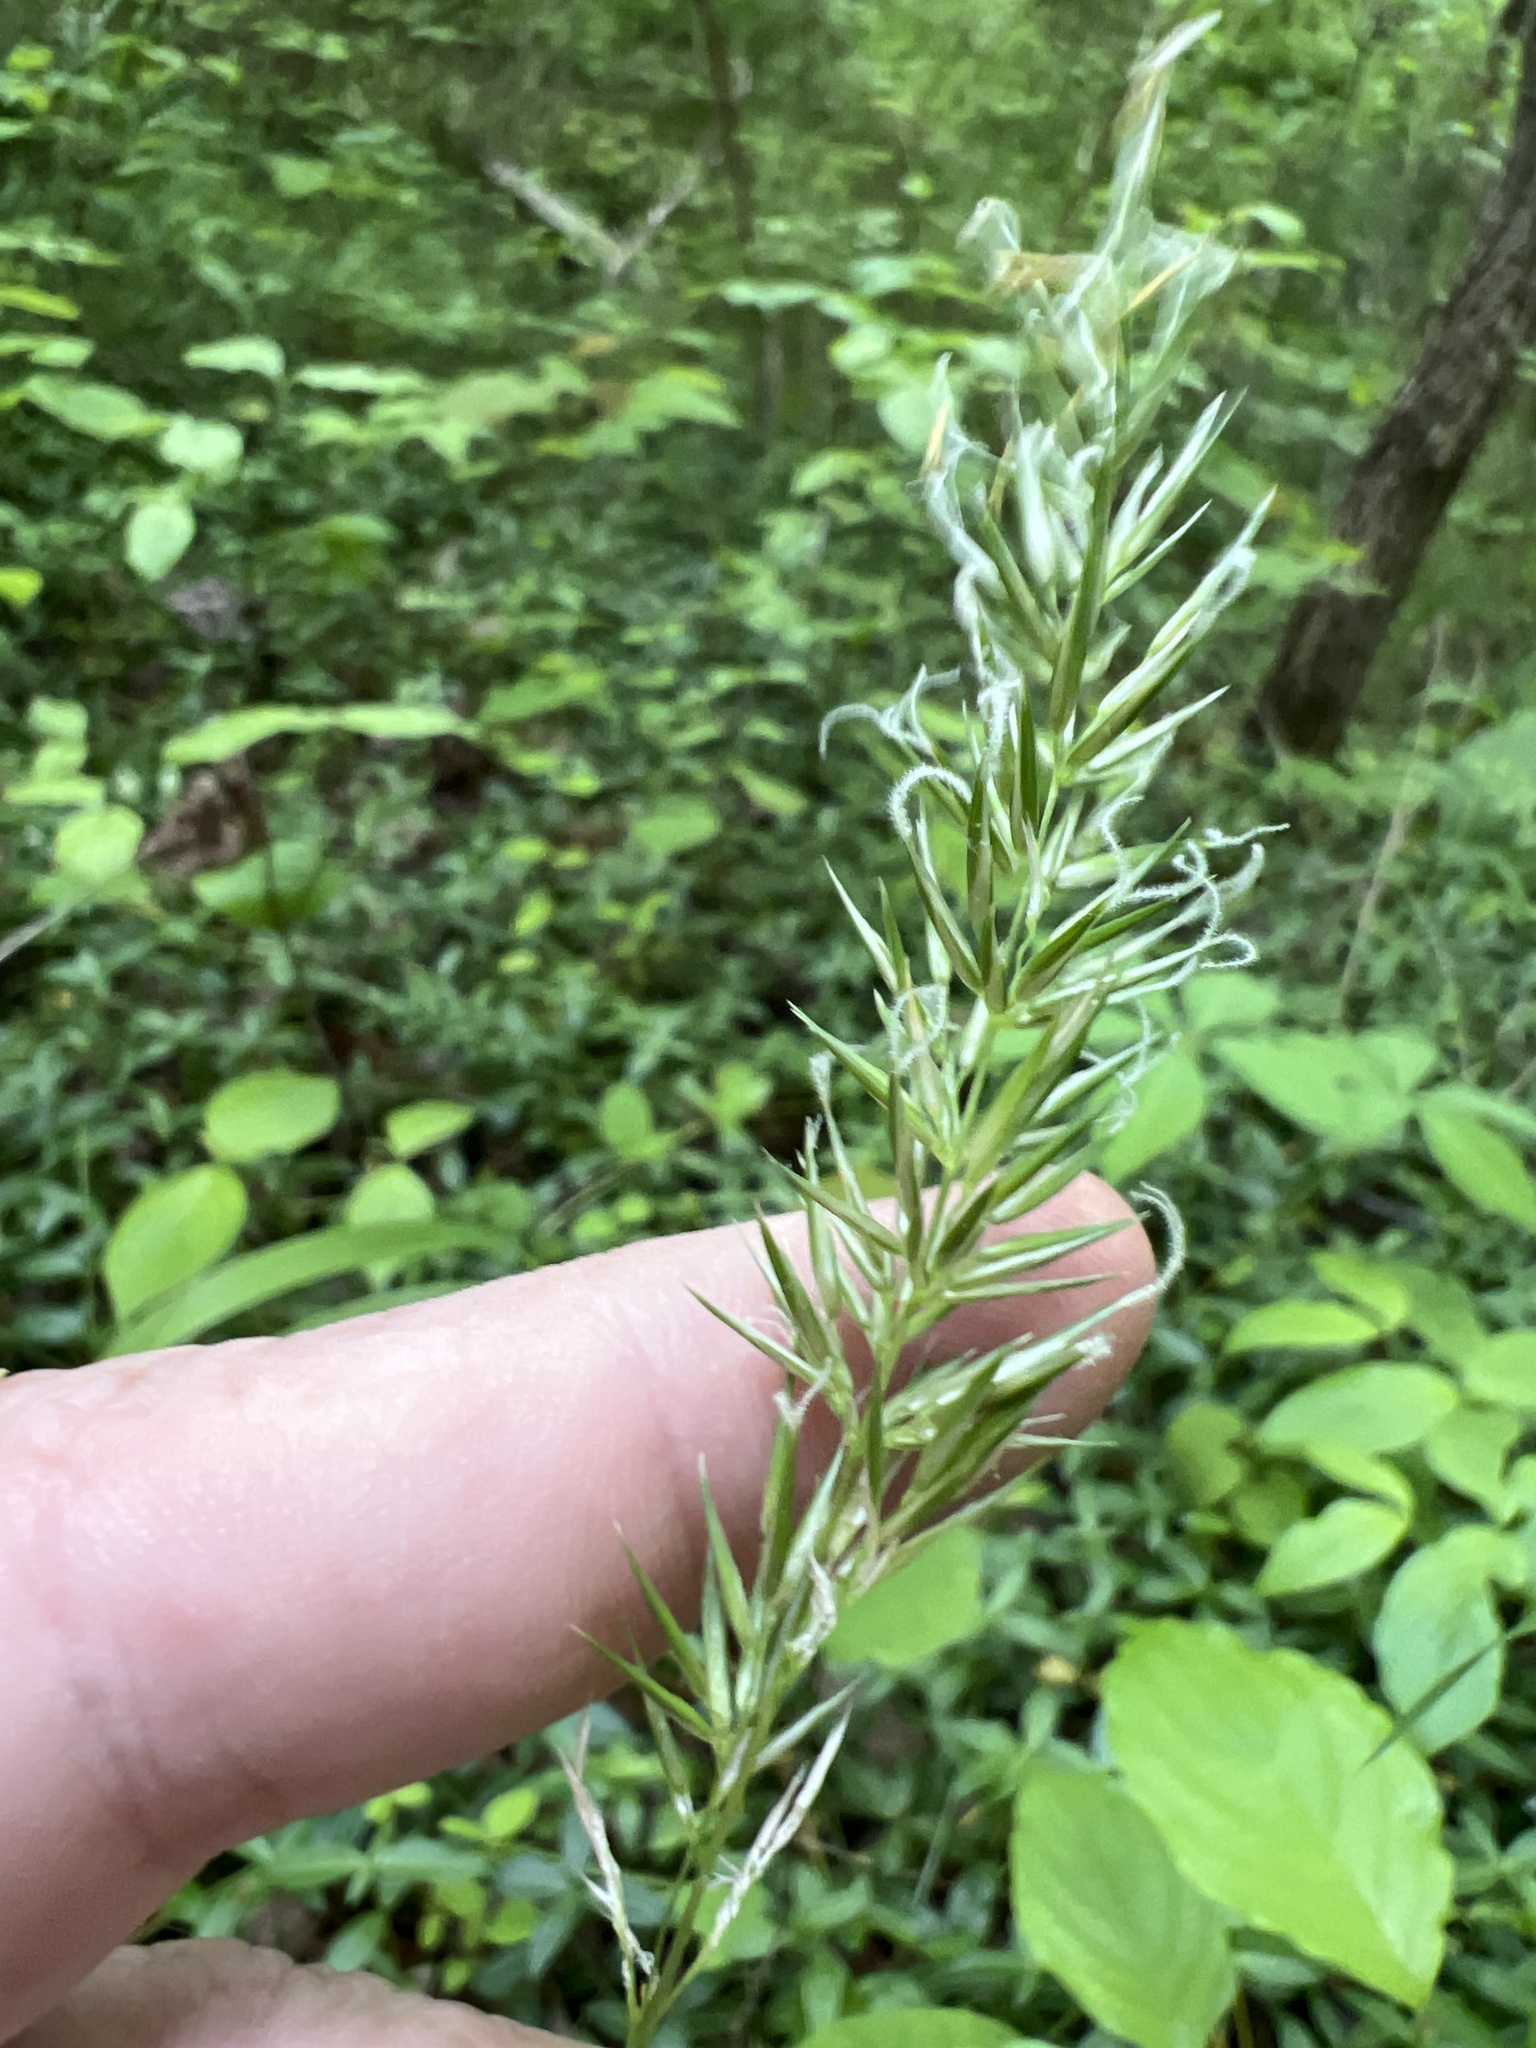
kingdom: Plantae
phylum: Tracheophyta
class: Liliopsida
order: Poales
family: Poaceae
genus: Anthoxanthum
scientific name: Anthoxanthum odoratum
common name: Sweet vernalgrass
